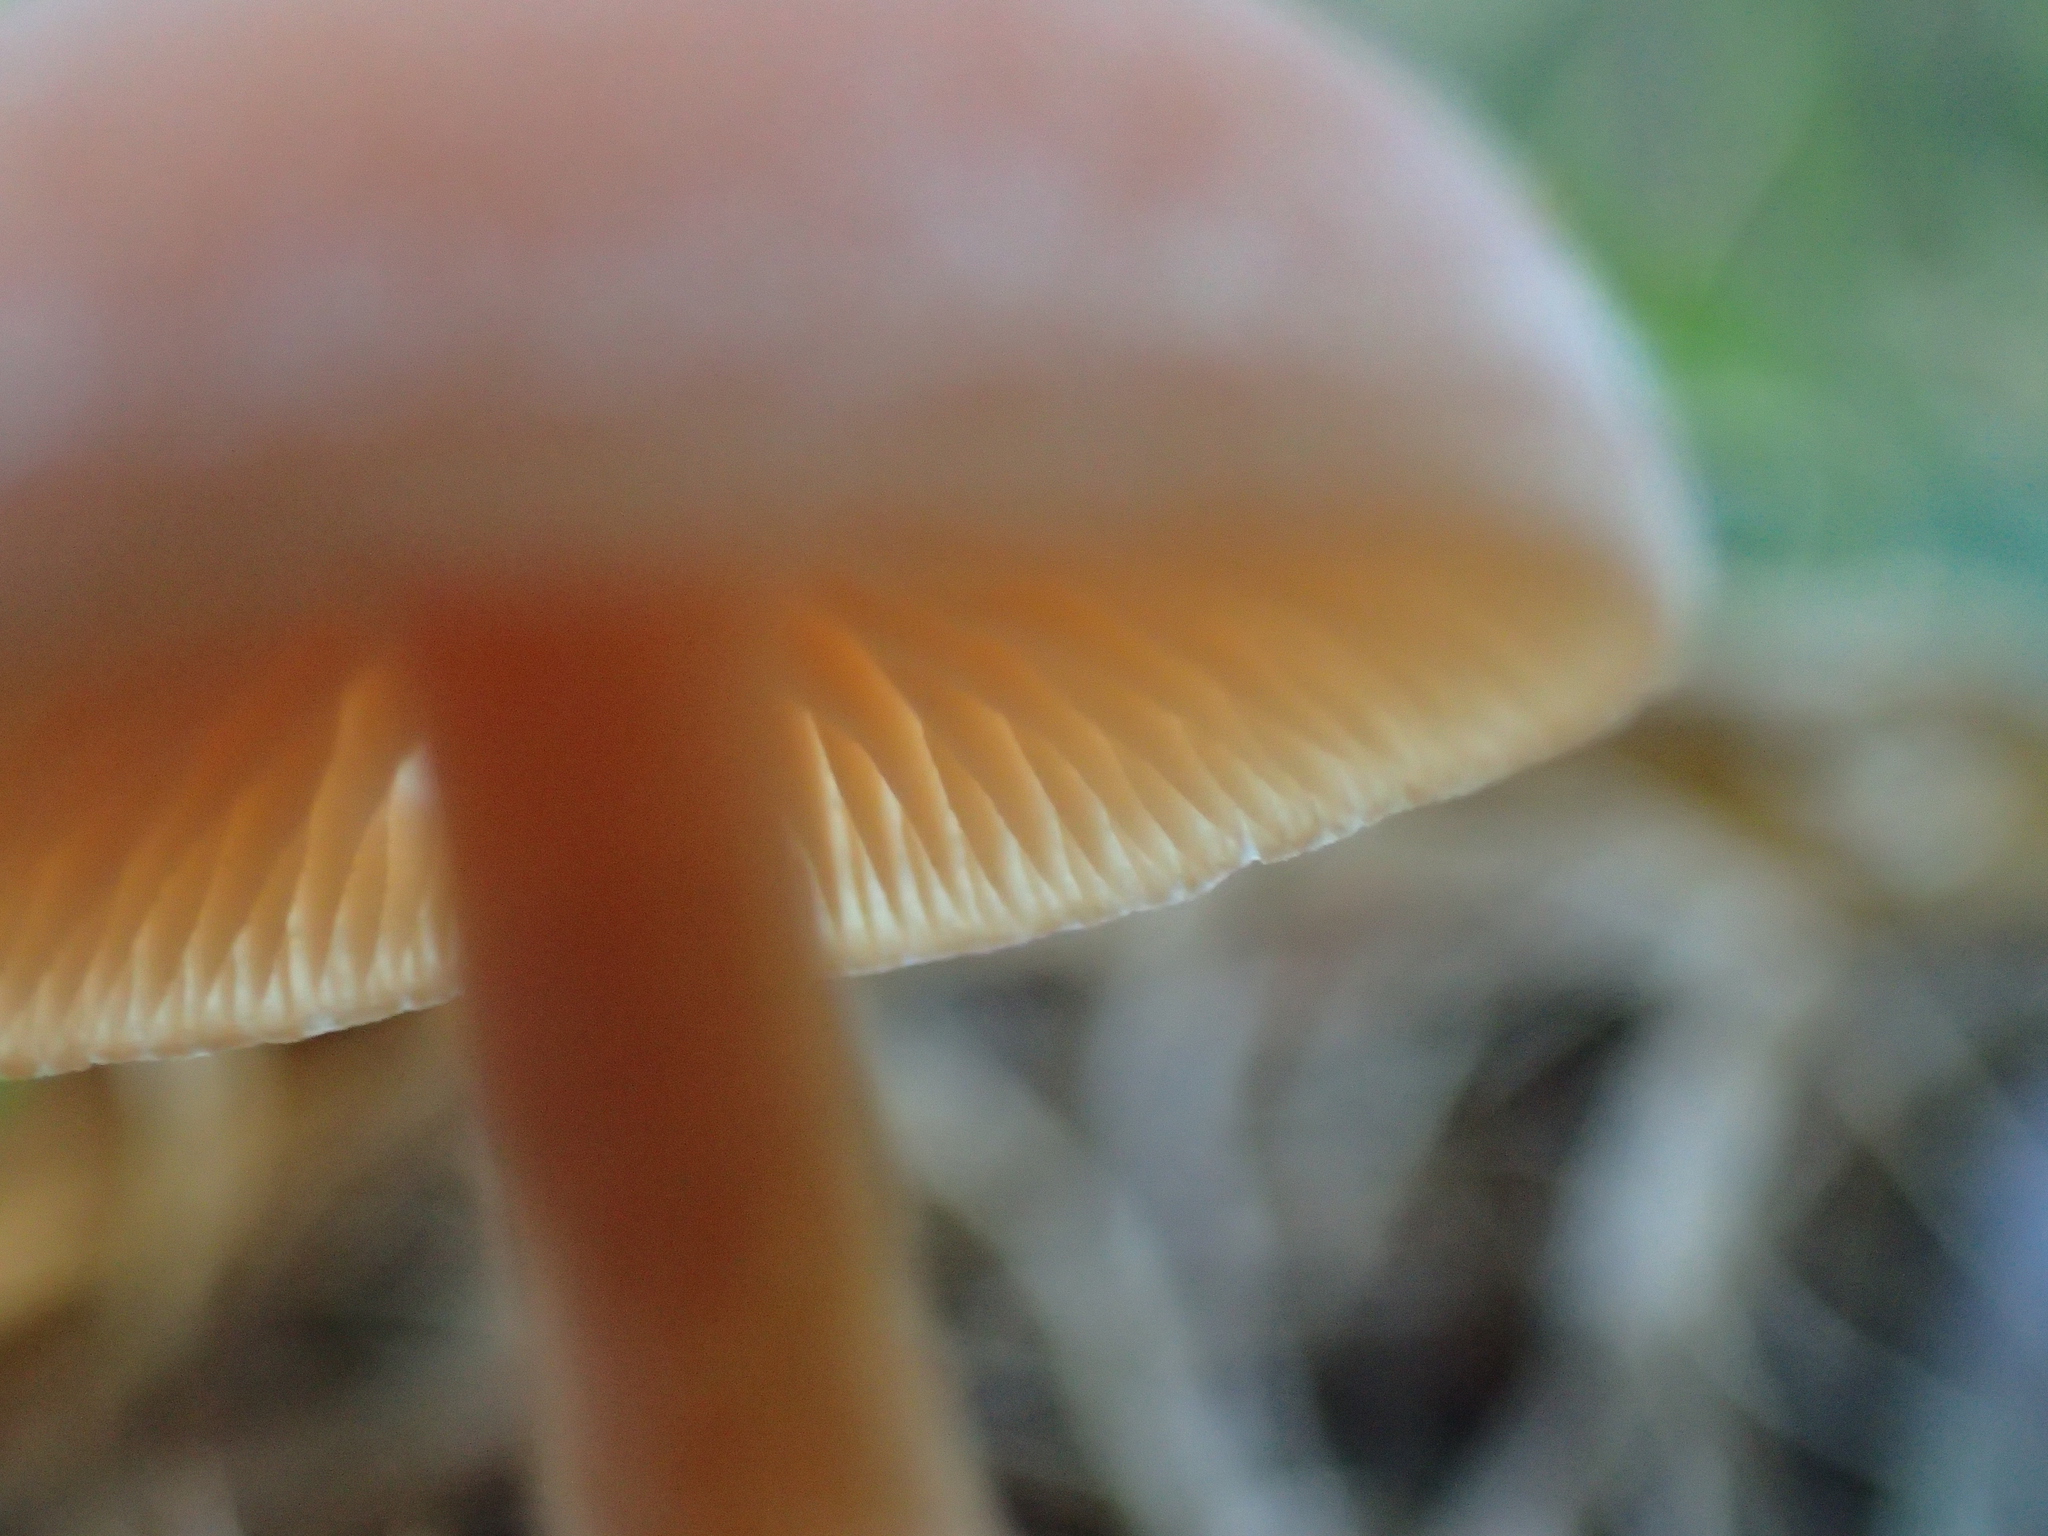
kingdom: Fungi
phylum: Basidiomycota
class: Agaricomycetes
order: Agaricales
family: Tubariaceae
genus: Tubaria
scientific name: Tubaria furfuracea
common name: Scurfy twiglet
